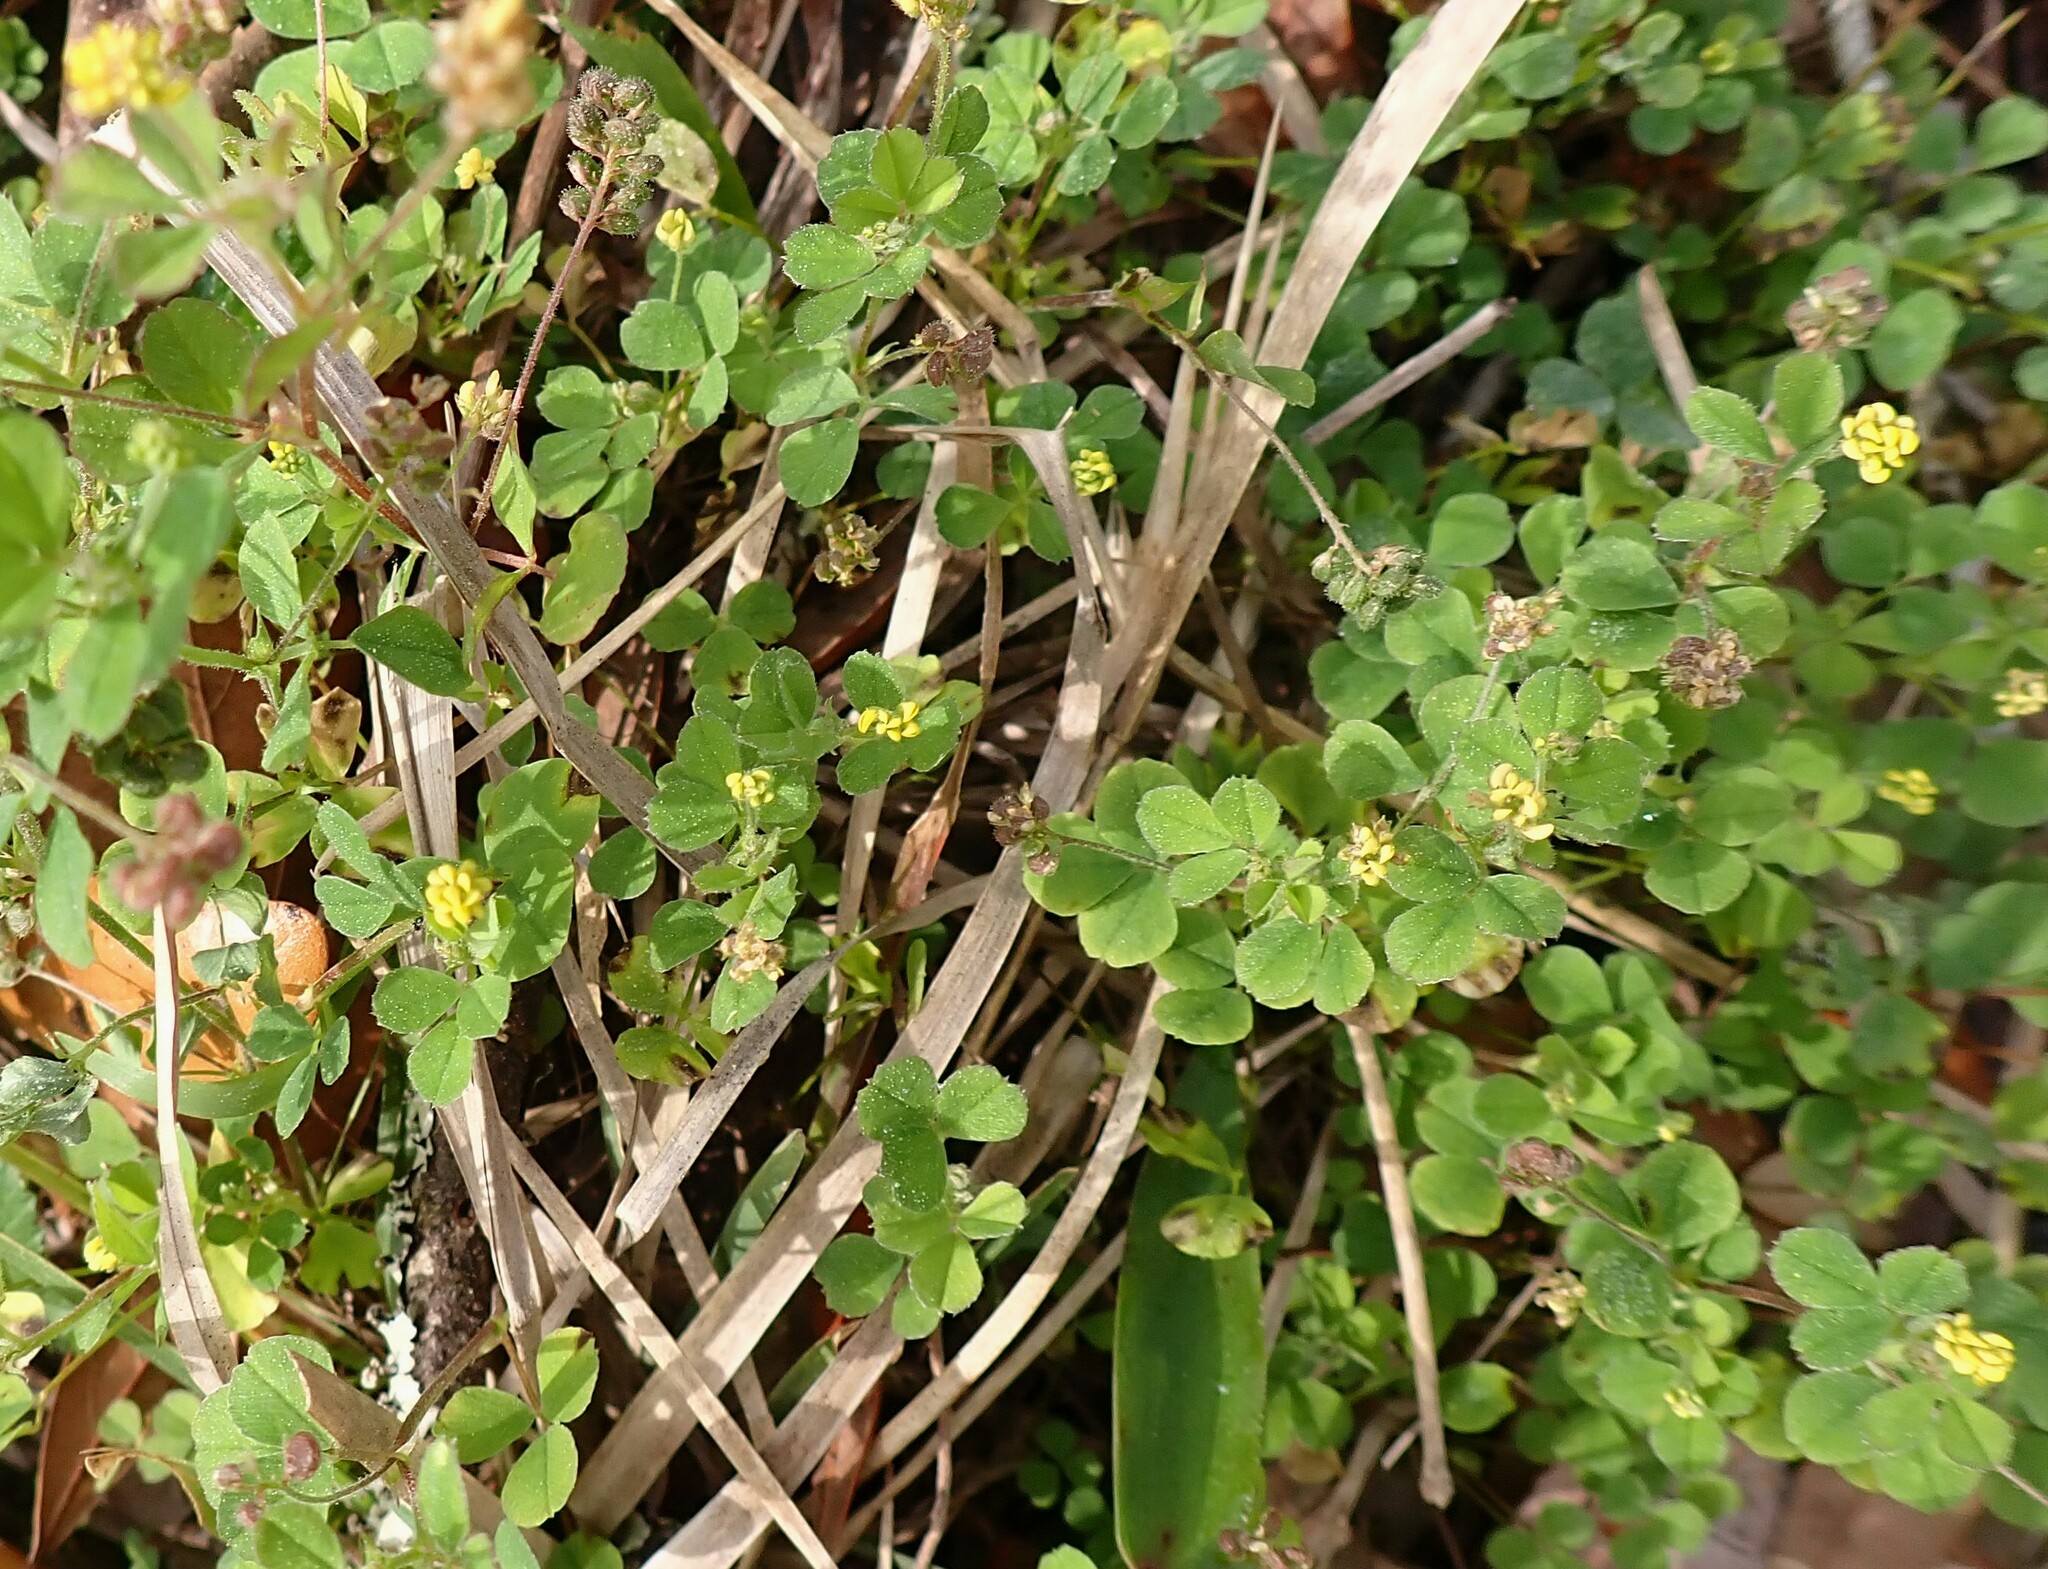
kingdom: Plantae
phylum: Tracheophyta
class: Magnoliopsida
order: Fabales
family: Fabaceae
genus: Medicago
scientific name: Medicago lupulina
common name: Black medick
